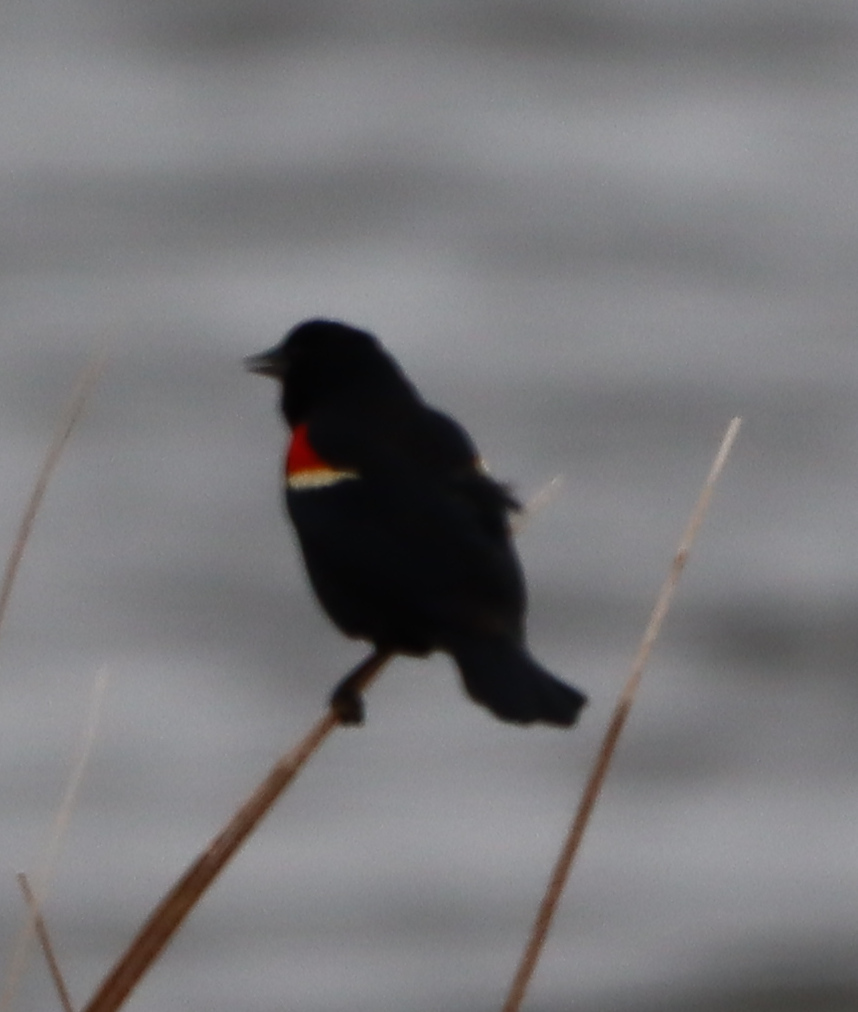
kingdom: Animalia
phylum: Chordata
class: Aves
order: Passeriformes
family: Icteridae
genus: Agelaius
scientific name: Agelaius phoeniceus
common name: Red-winged blackbird
